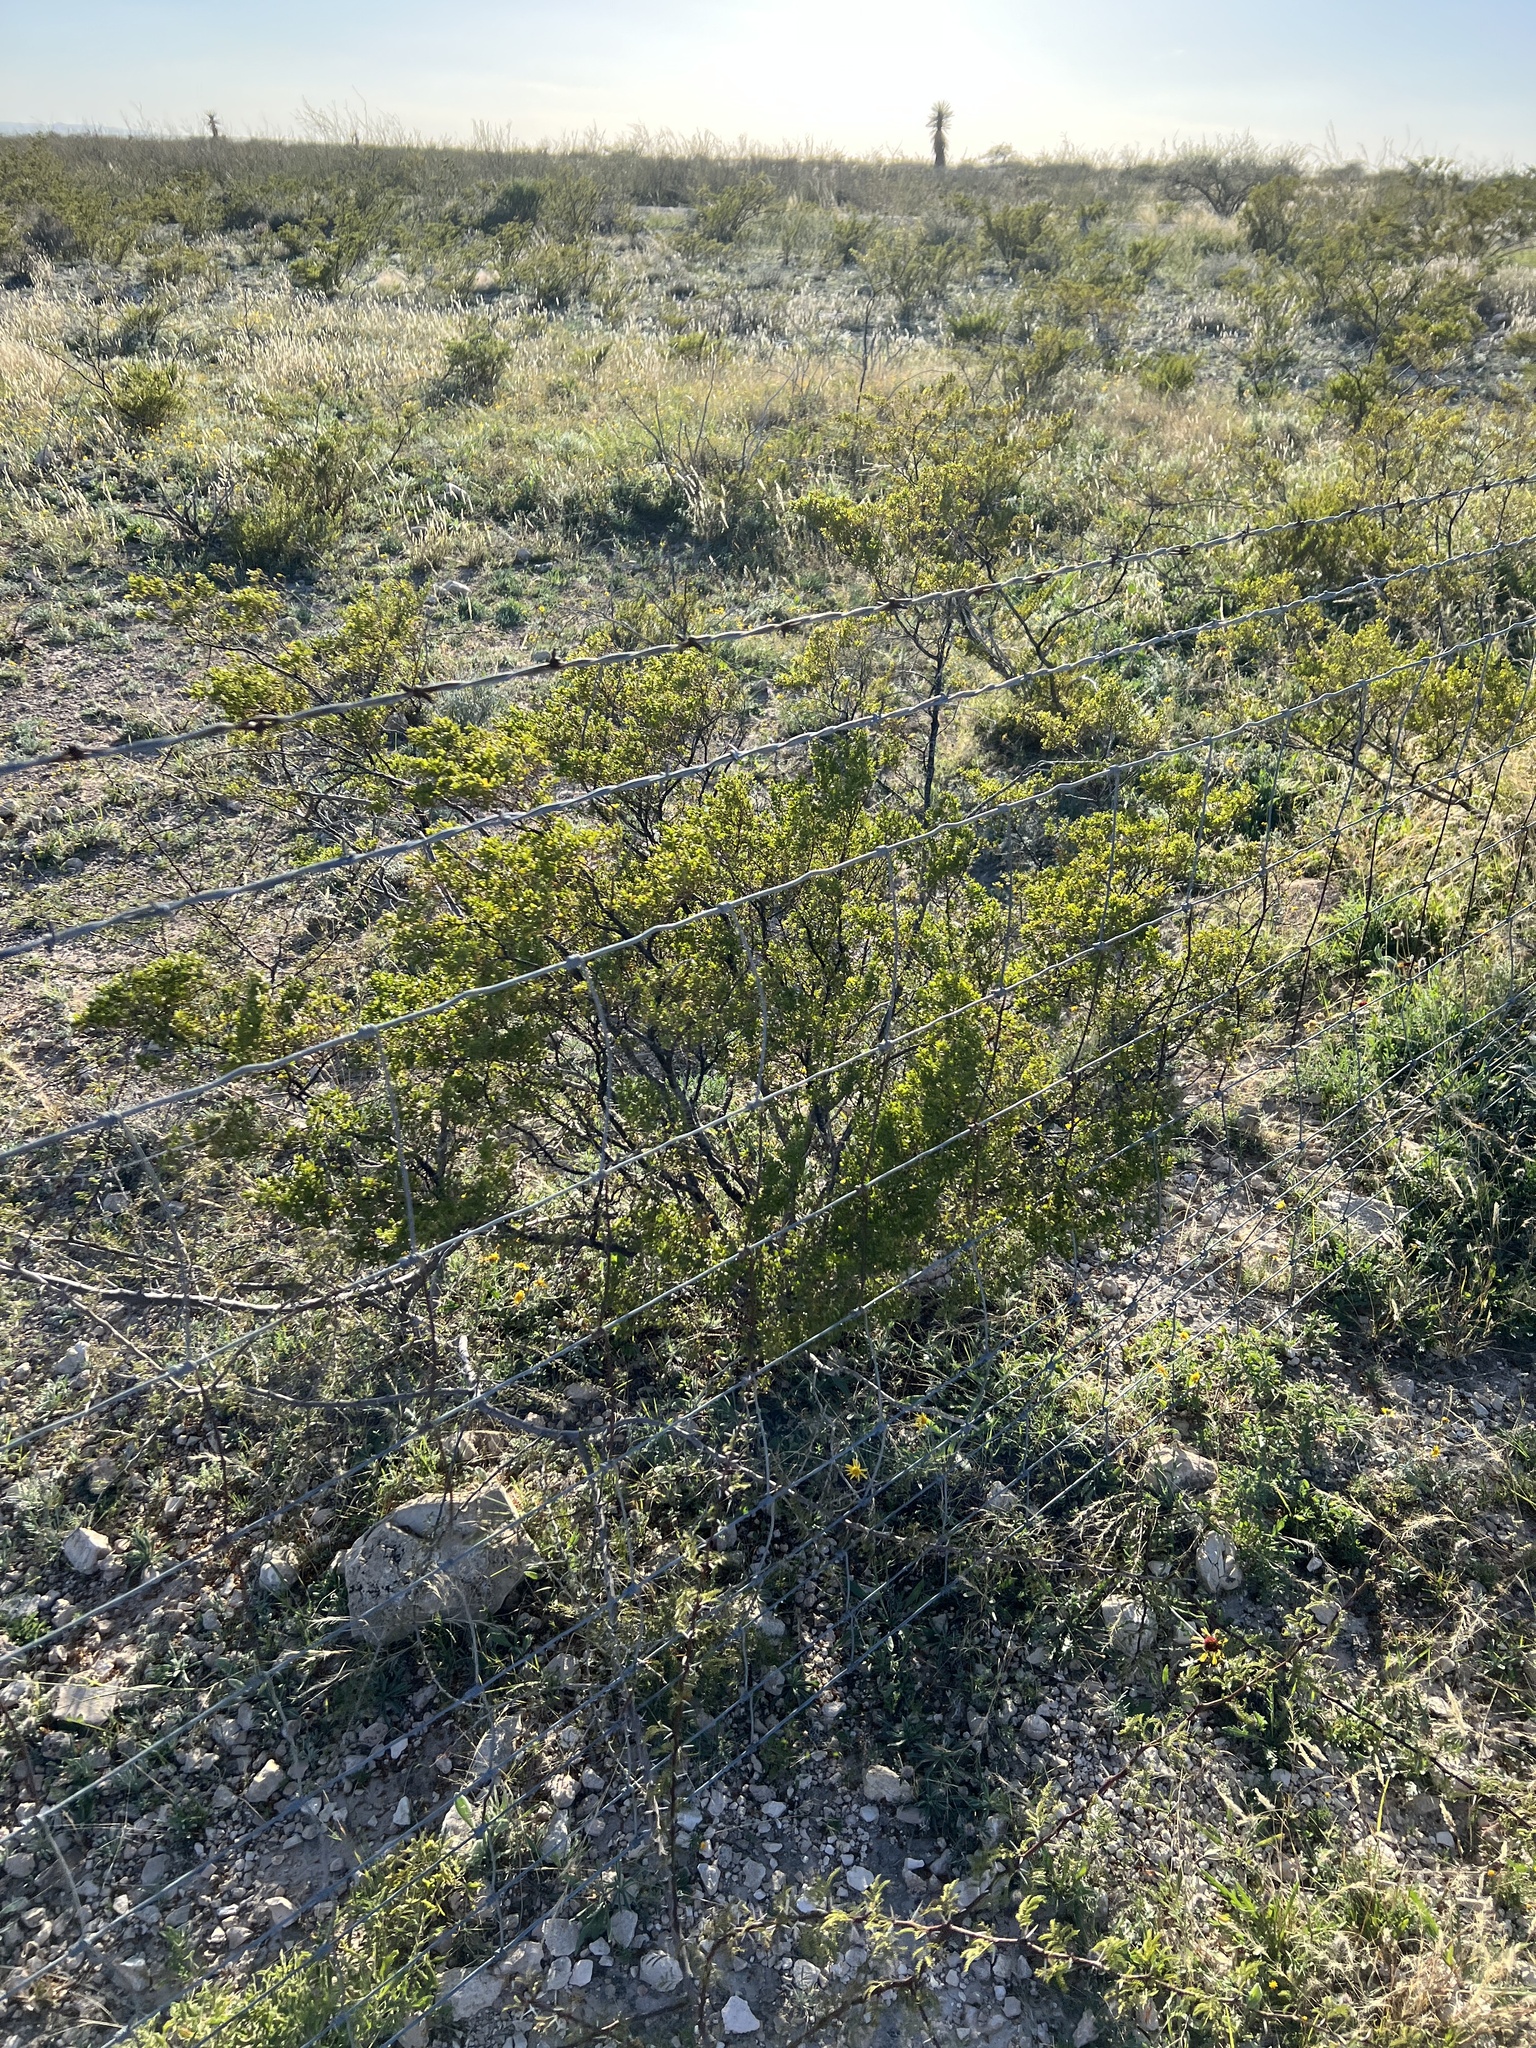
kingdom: Plantae
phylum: Tracheophyta
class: Magnoliopsida
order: Zygophyllales
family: Zygophyllaceae
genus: Larrea
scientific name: Larrea tridentata
